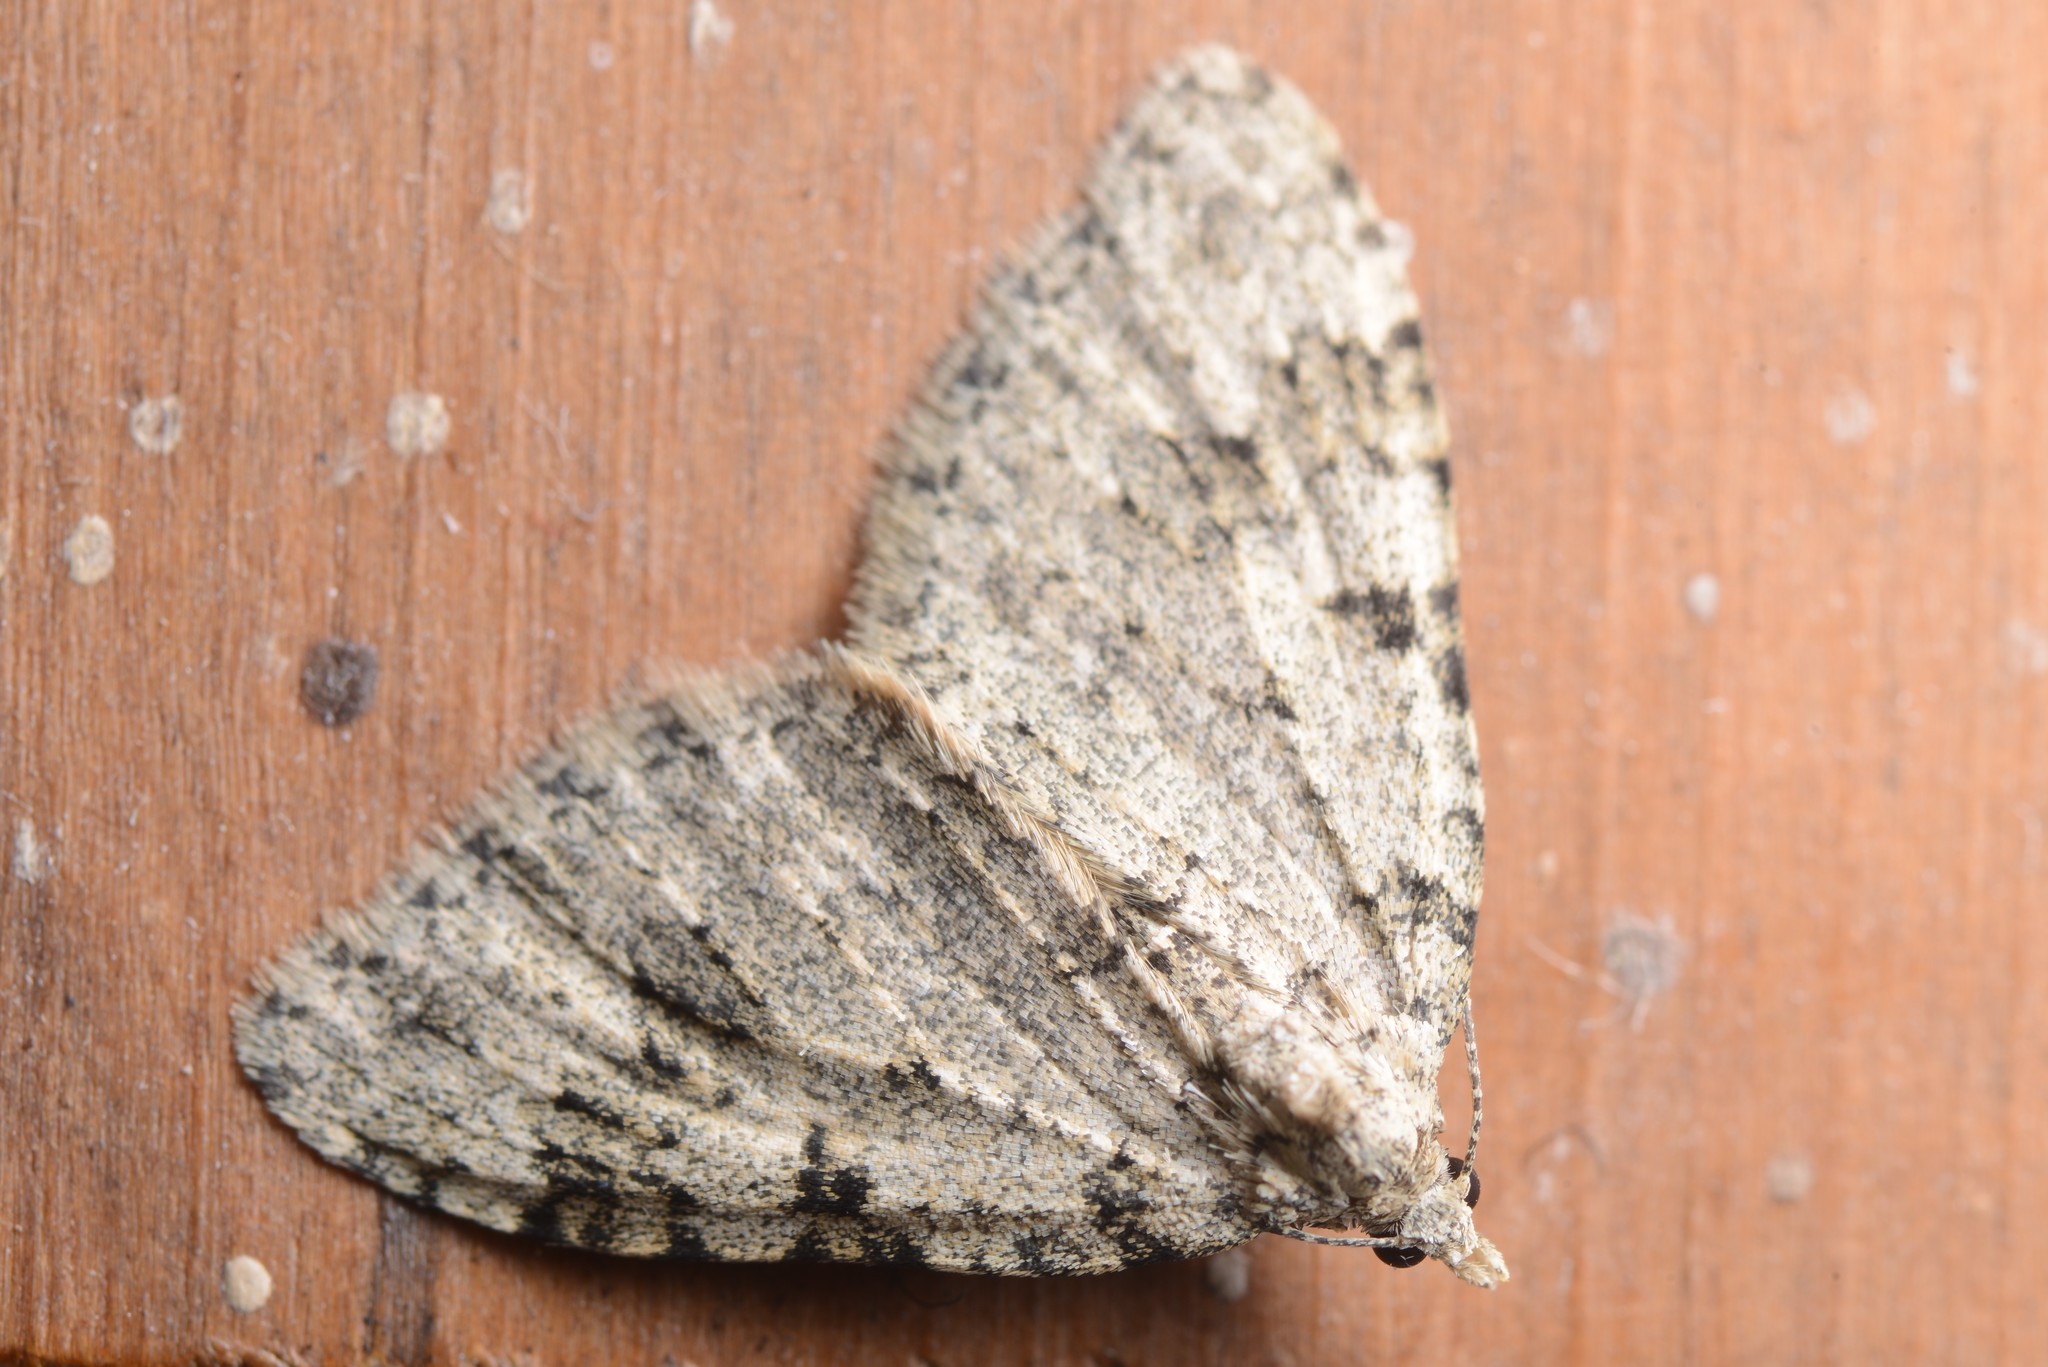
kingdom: Animalia
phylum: Arthropoda
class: Insecta
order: Lepidoptera
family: Geometridae
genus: Helastia
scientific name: Helastia cinerearia
